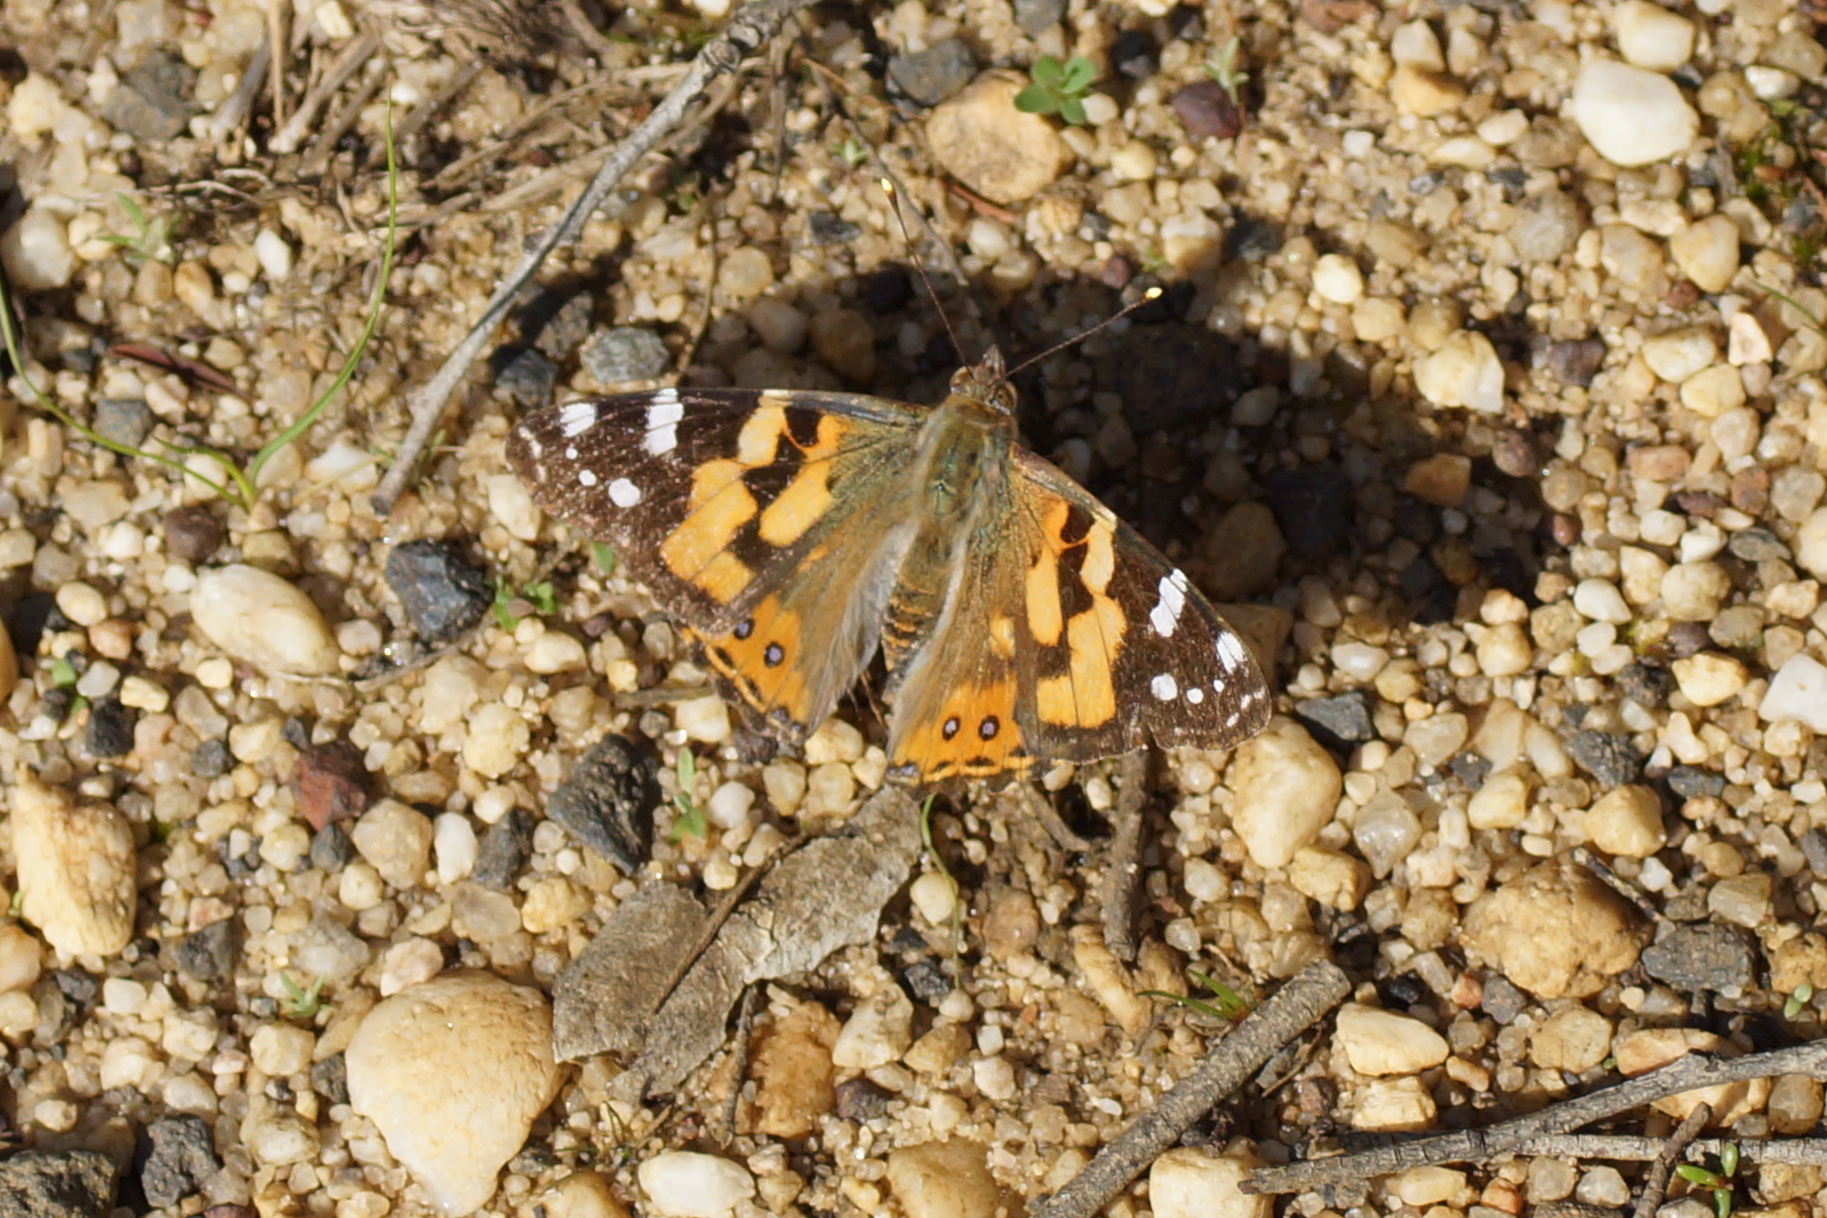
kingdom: Animalia
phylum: Arthropoda
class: Insecta
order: Lepidoptera
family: Nymphalidae
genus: Vanessa
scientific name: Vanessa kershawi
